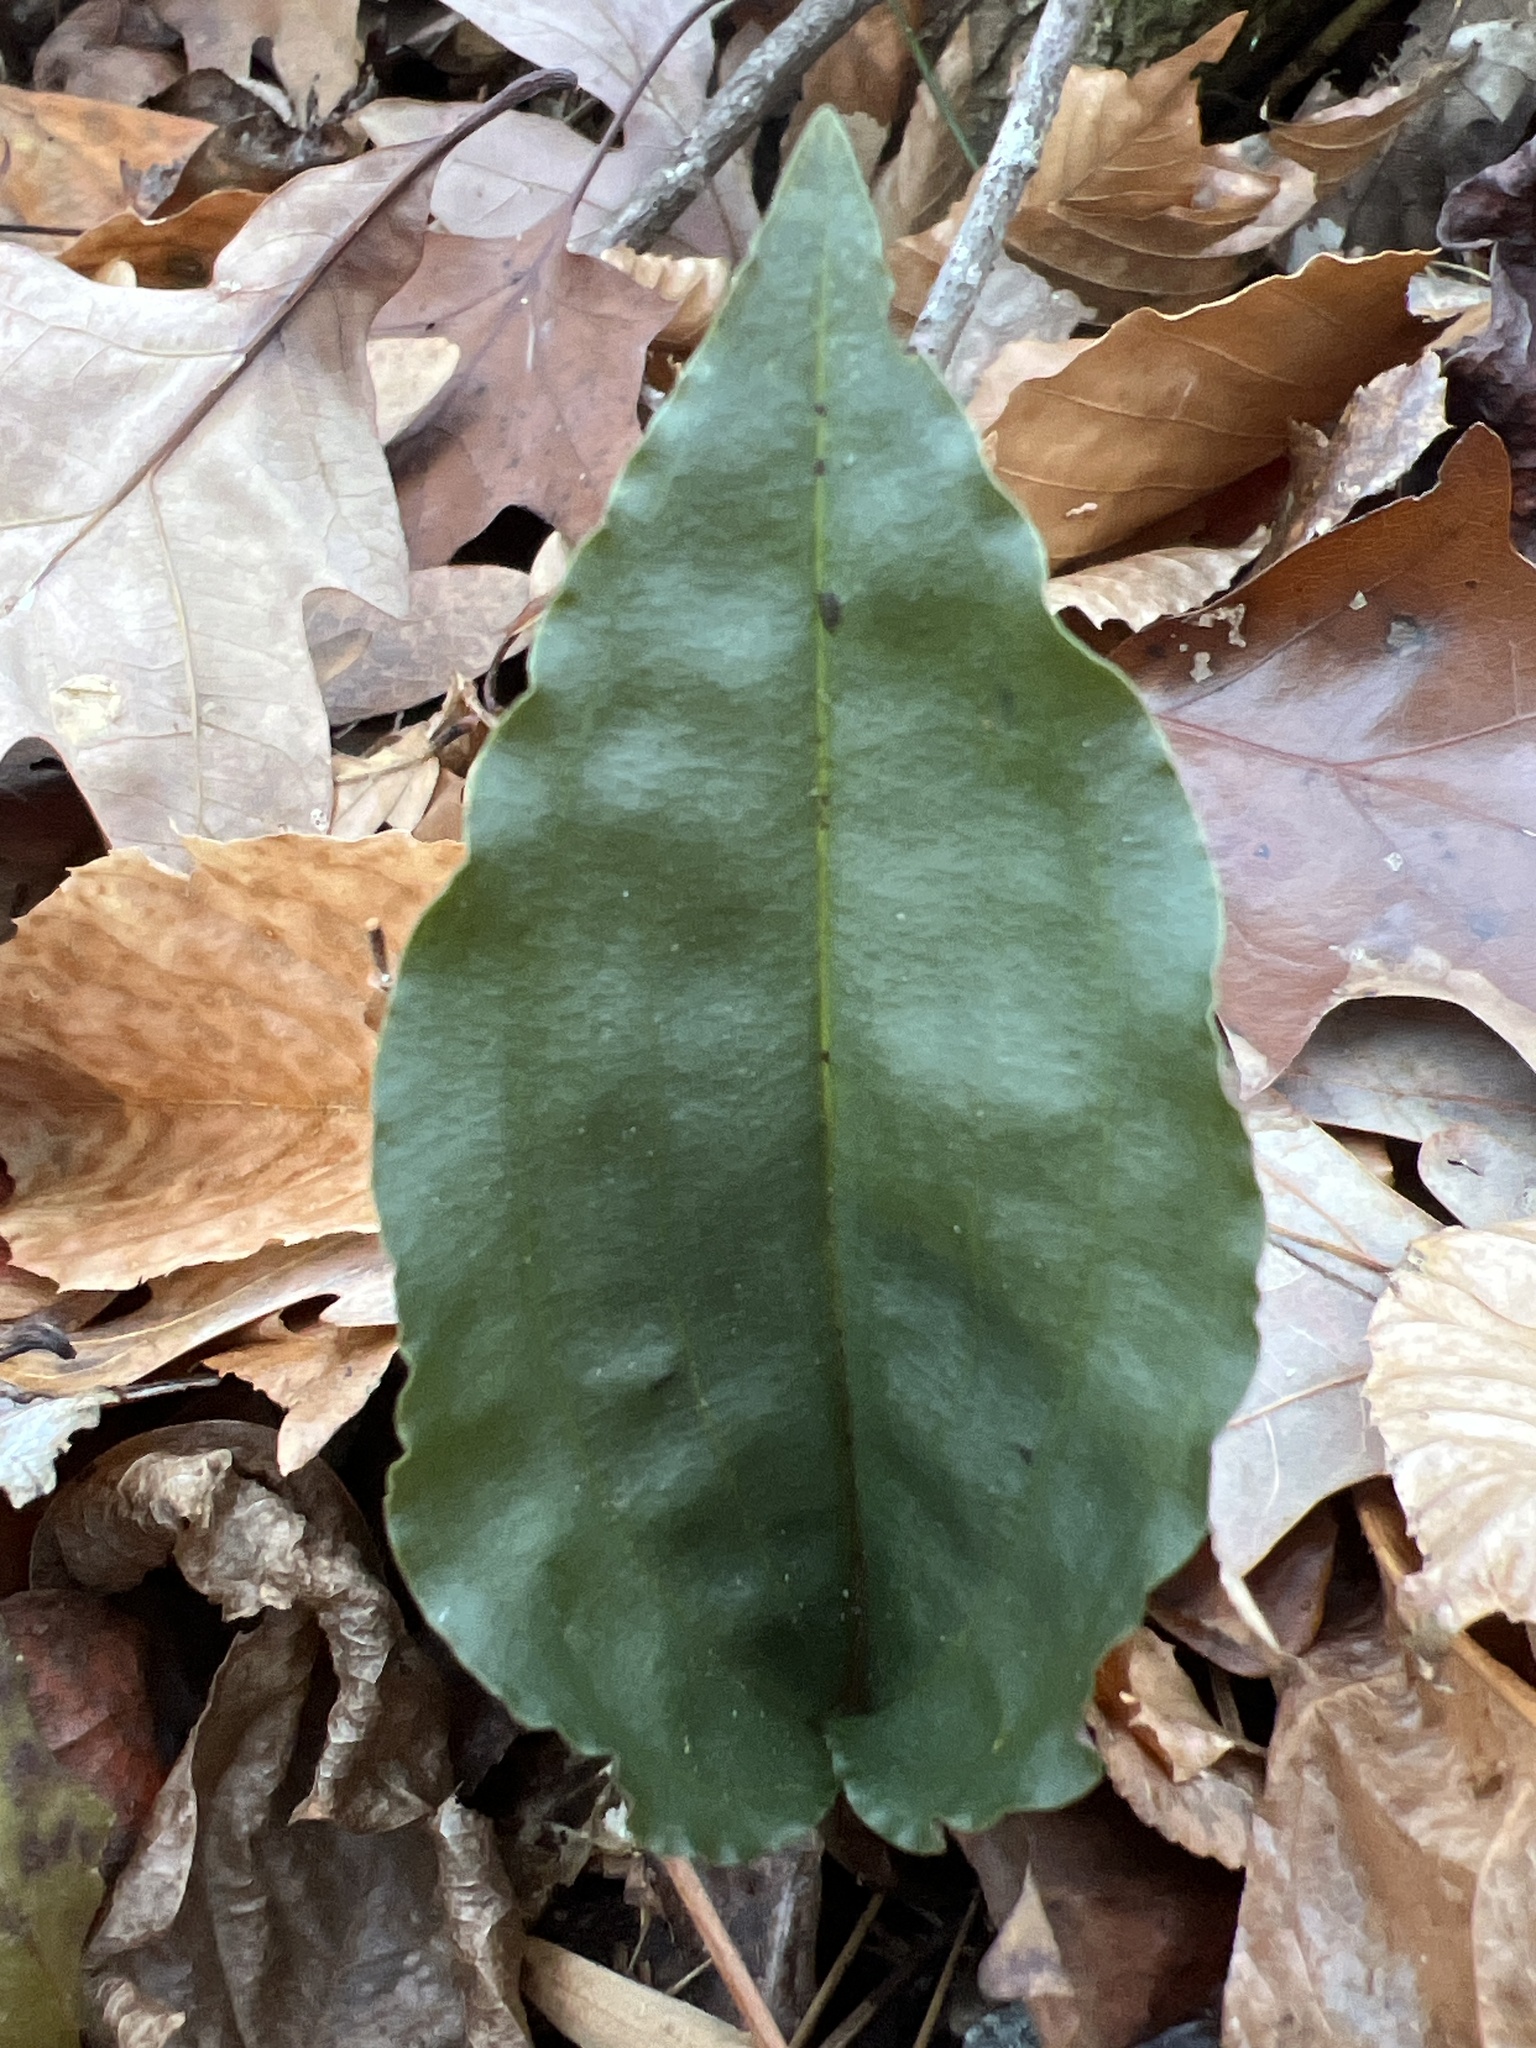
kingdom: Plantae
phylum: Tracheophyta
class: Liliopsida
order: Asparagales
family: Orchidaceae
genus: Tipularia
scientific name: Tipularia discolor
